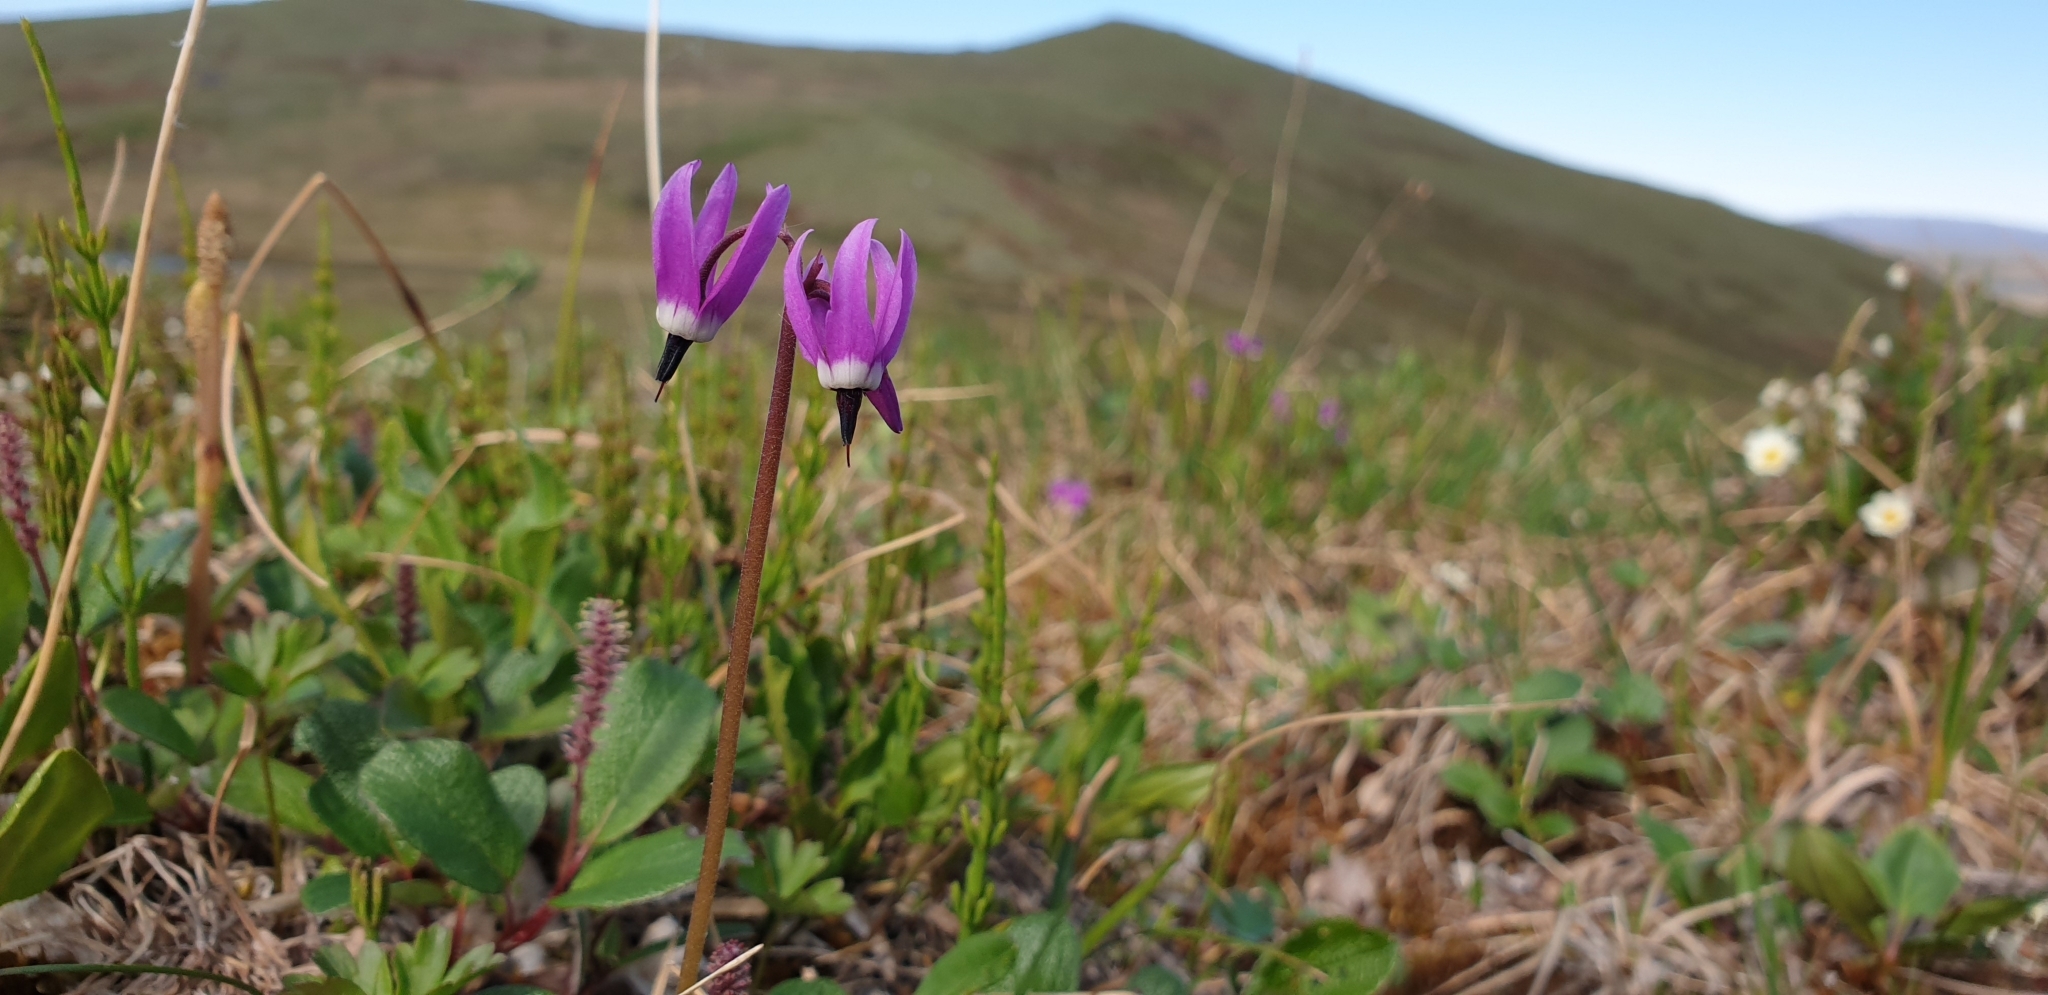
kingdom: Plantae
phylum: Tracheophyta
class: Magnoliopsida
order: Ericales
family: Primulaceae
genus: Dodecatheon
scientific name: Dodecatheon frigidum
